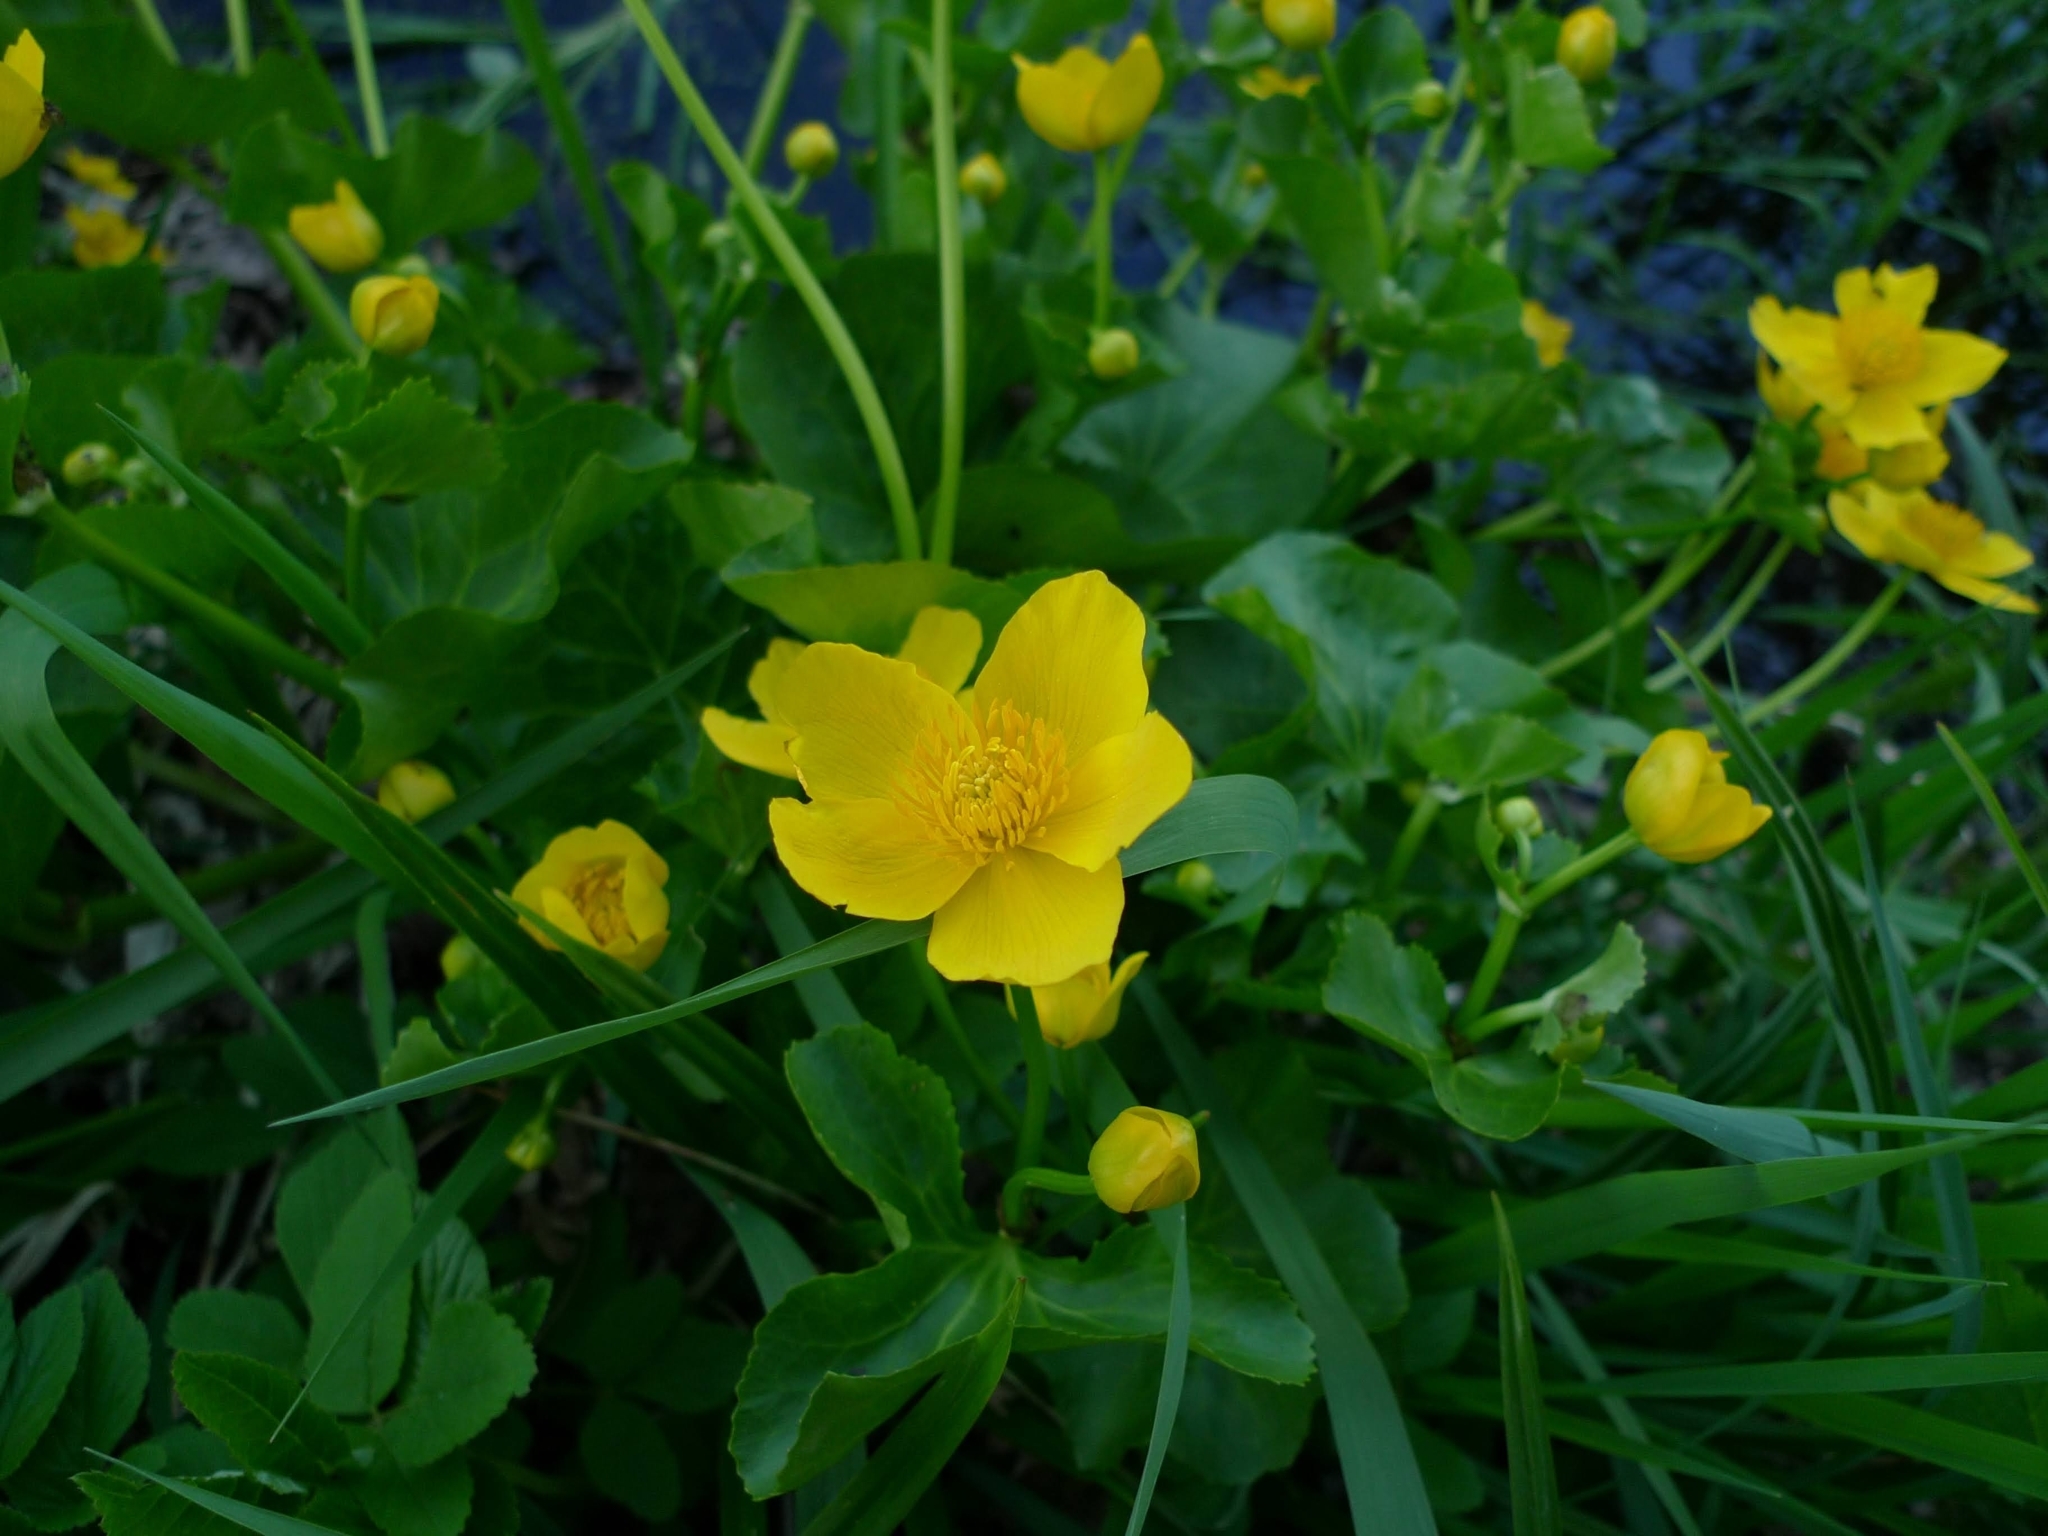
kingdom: Plantae
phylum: Tracheophyta
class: Magnoliopsida
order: Ranunculales
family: Ranunculaceae
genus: Caltha
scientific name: Caltha palustris
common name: Marsh marigold
